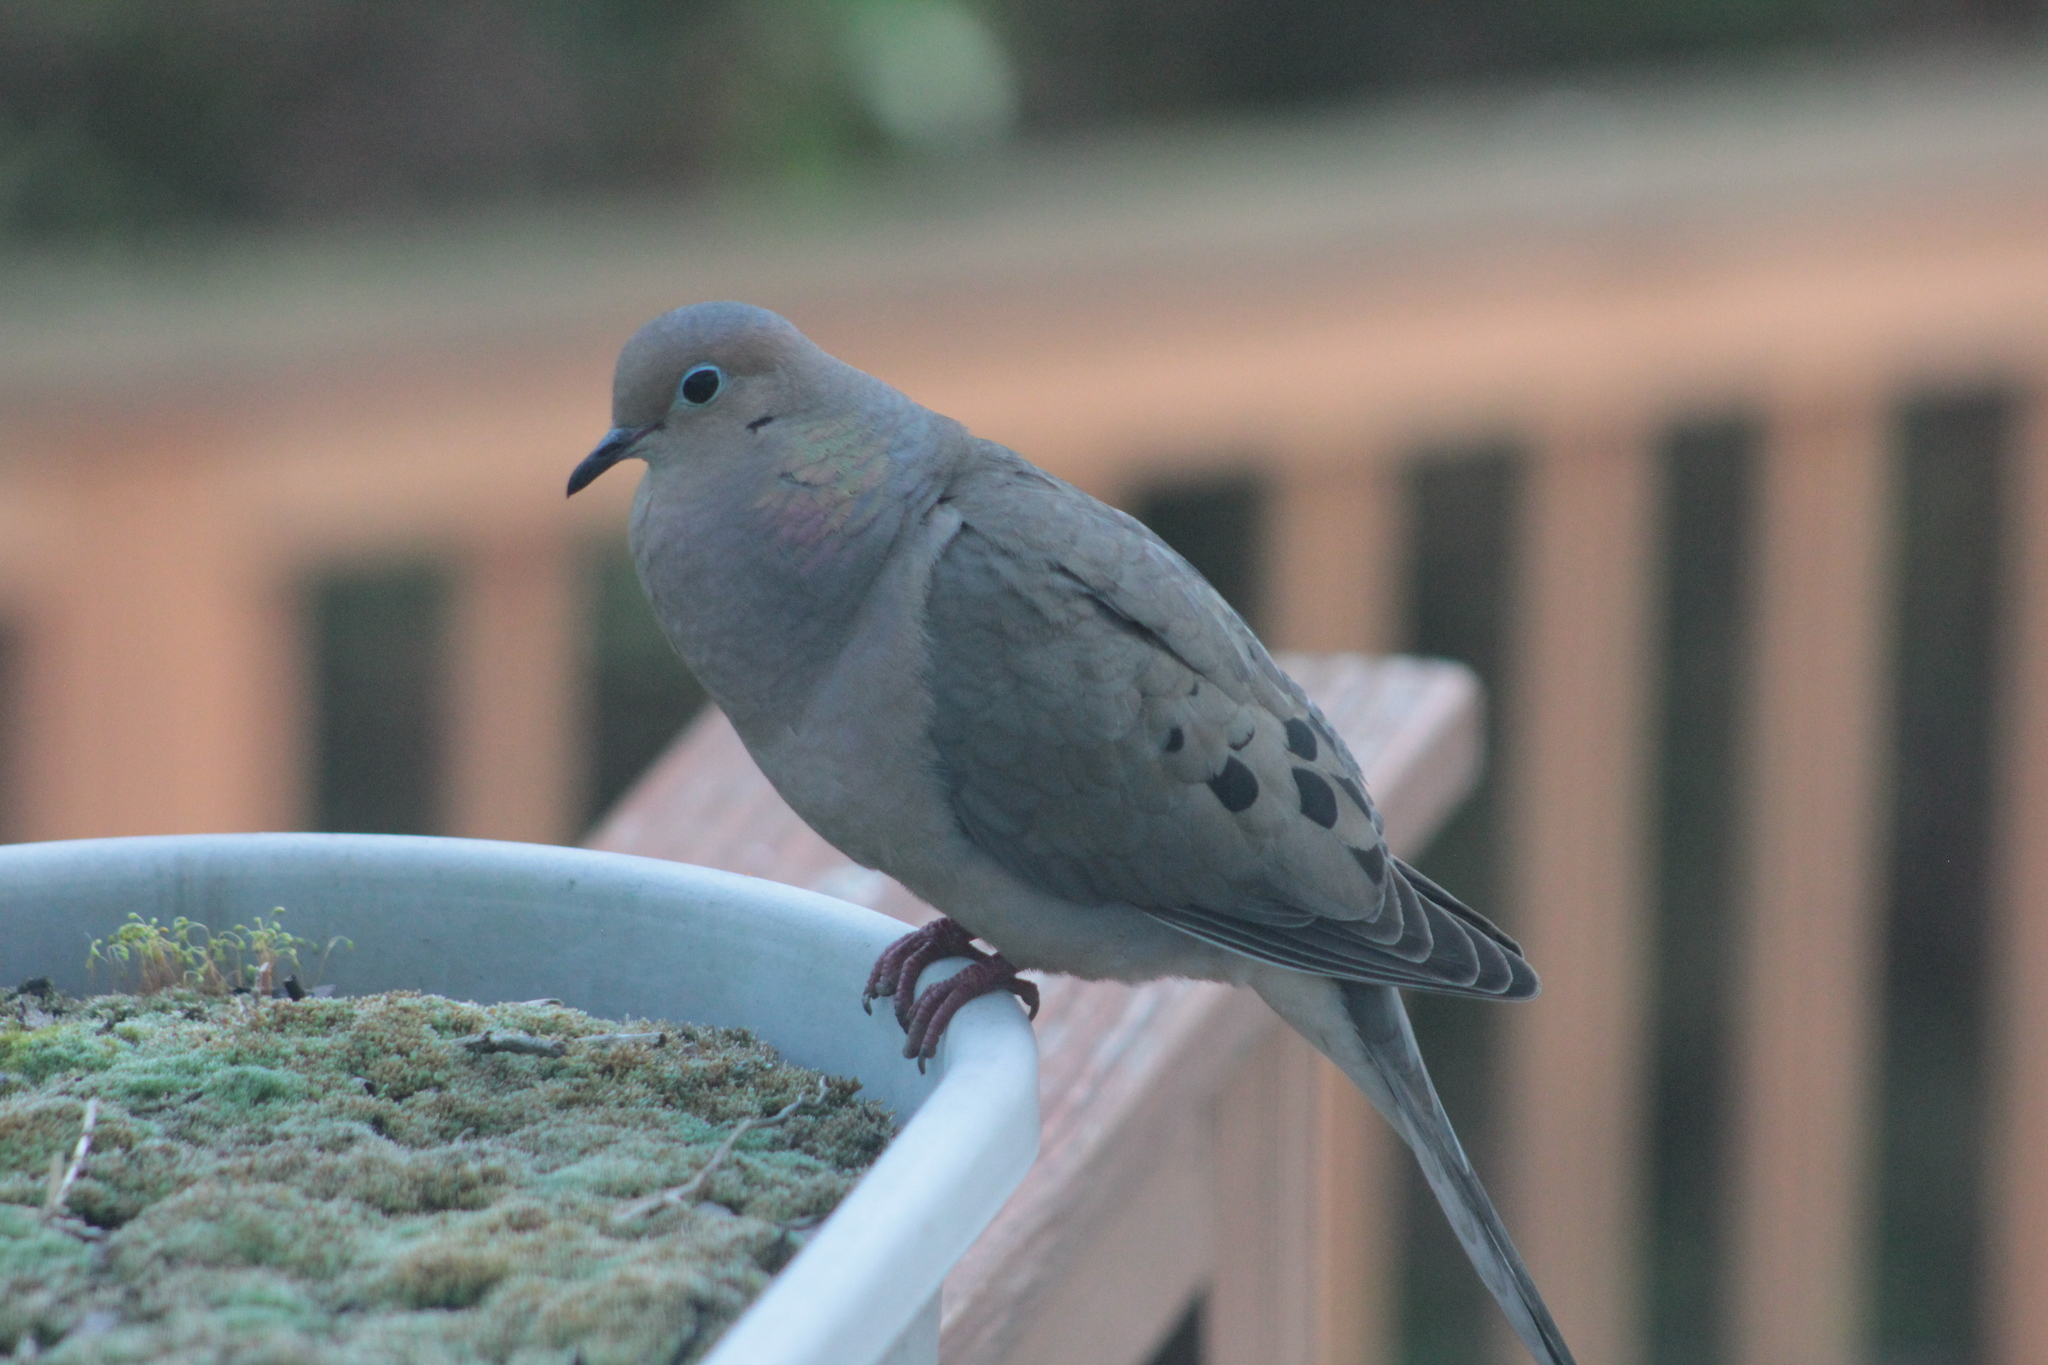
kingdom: Animalia
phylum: Chordata
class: Aves
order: Columbiformes
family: Columbidae
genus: Zenaida
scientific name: Zenaida macroura
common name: Mourning dove
